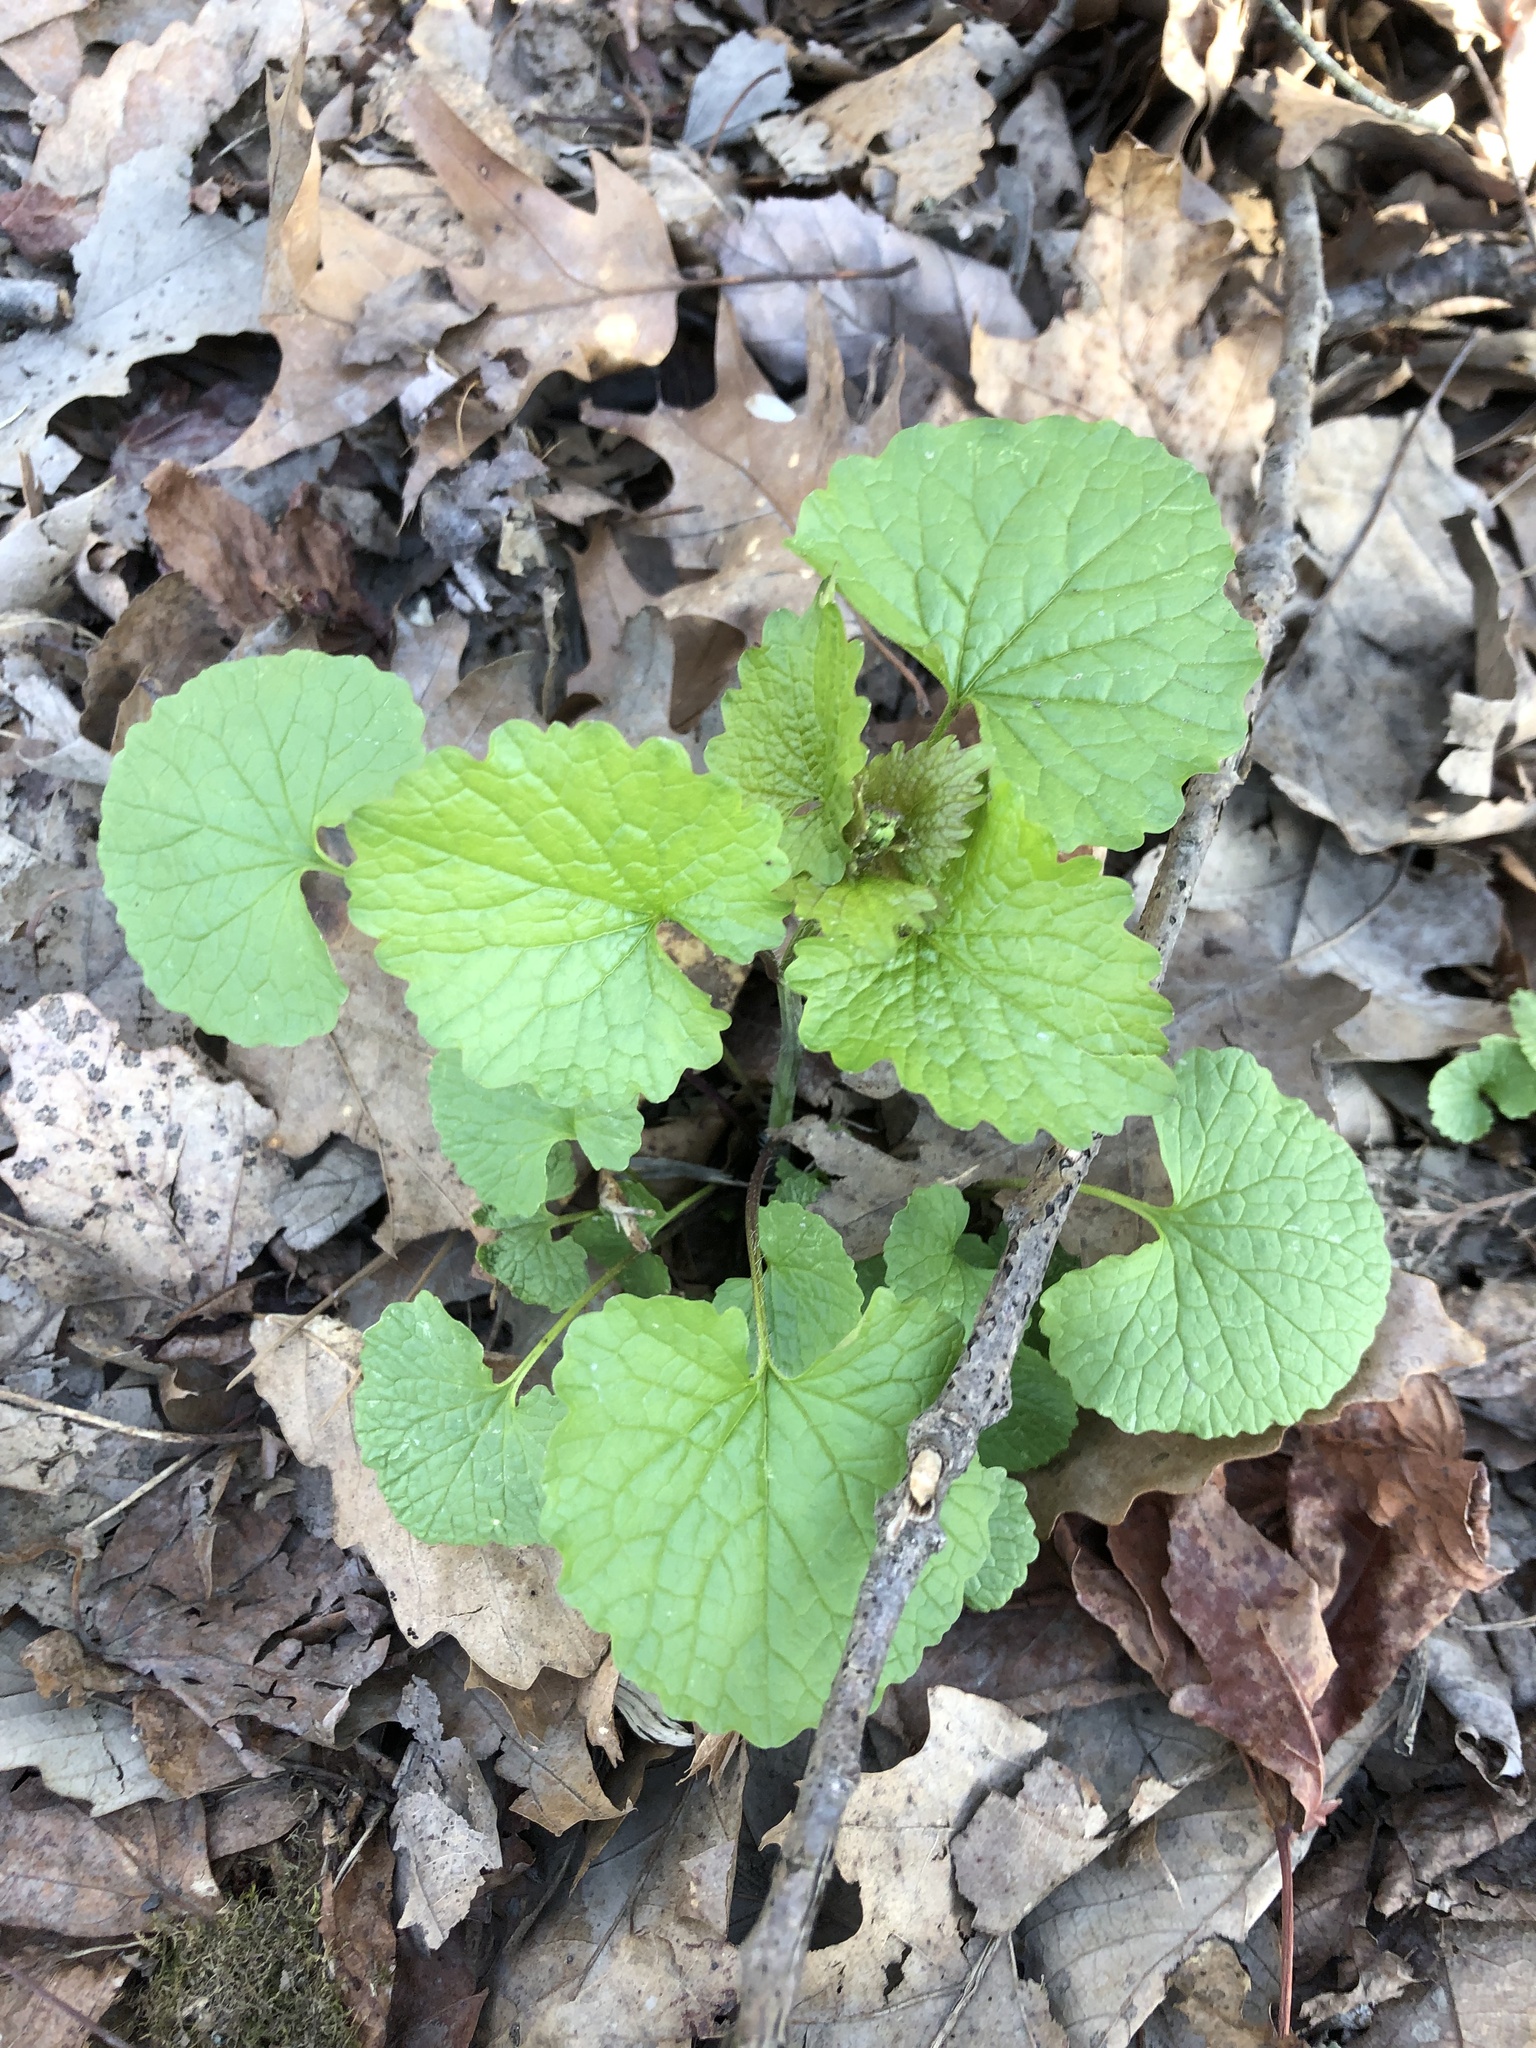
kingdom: Plantae
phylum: Tracheophyta
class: Magnoliopsida
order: Brassicales
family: Brassicaceae
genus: Alliaria
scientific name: Alliaria petiolata
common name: Garlic mustard
